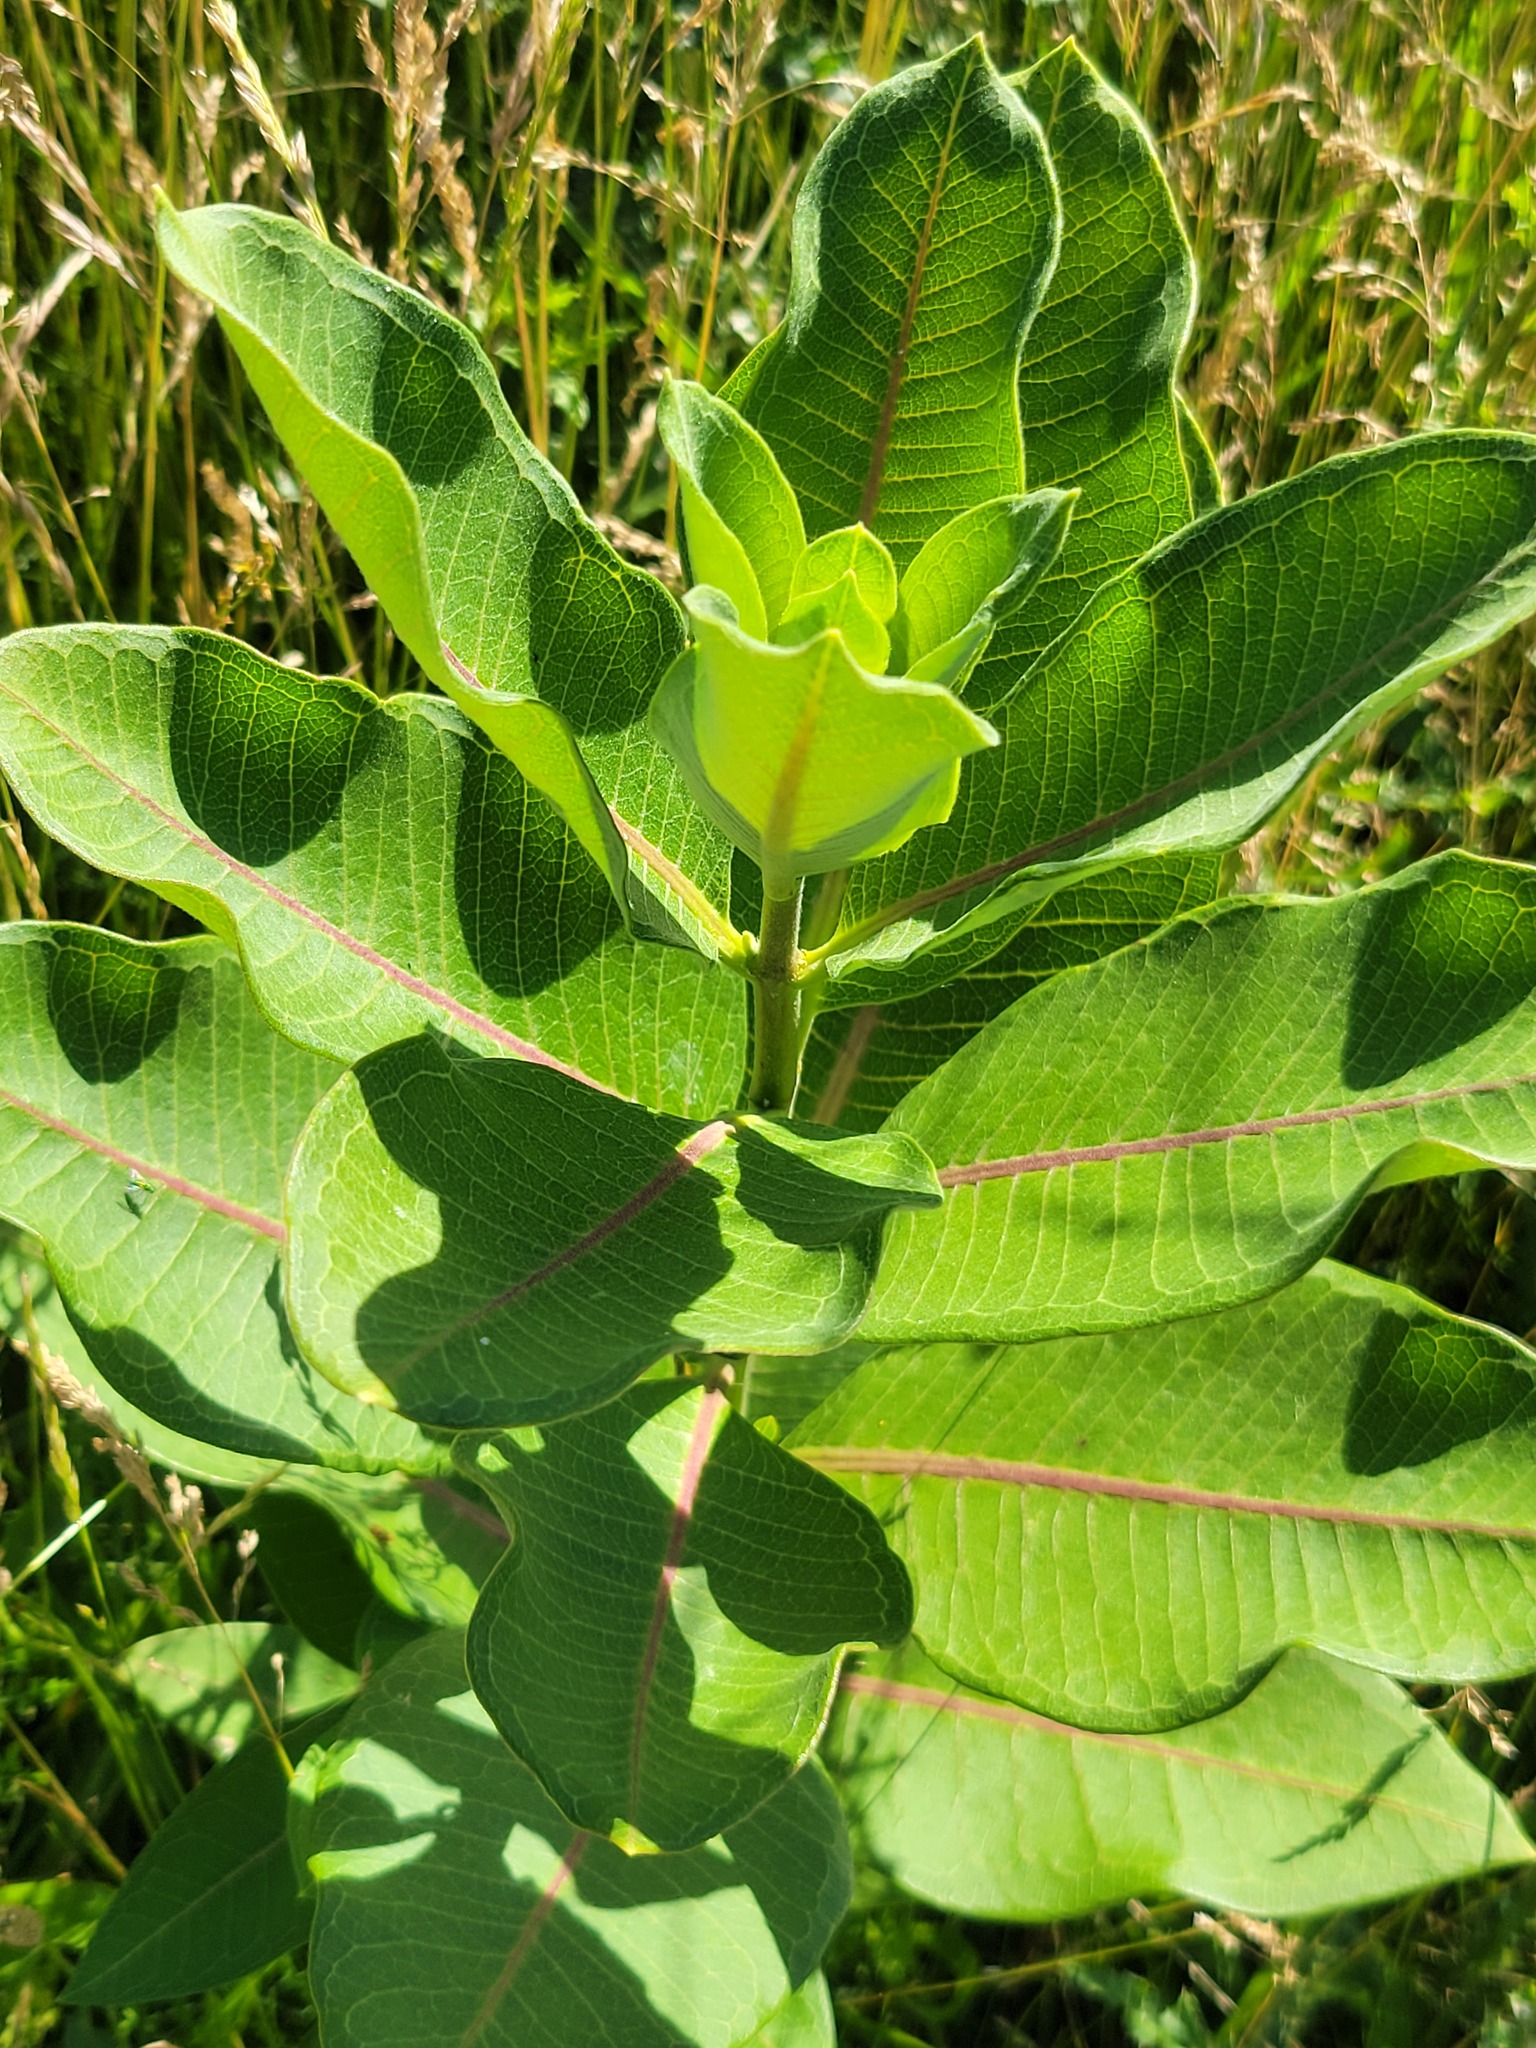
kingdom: Plantae
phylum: Tracheophyta
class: Magnoliopsida
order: Gentianales
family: Apocynaceae
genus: Asclepias
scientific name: Asclepias syriaca
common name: Common milkweed
